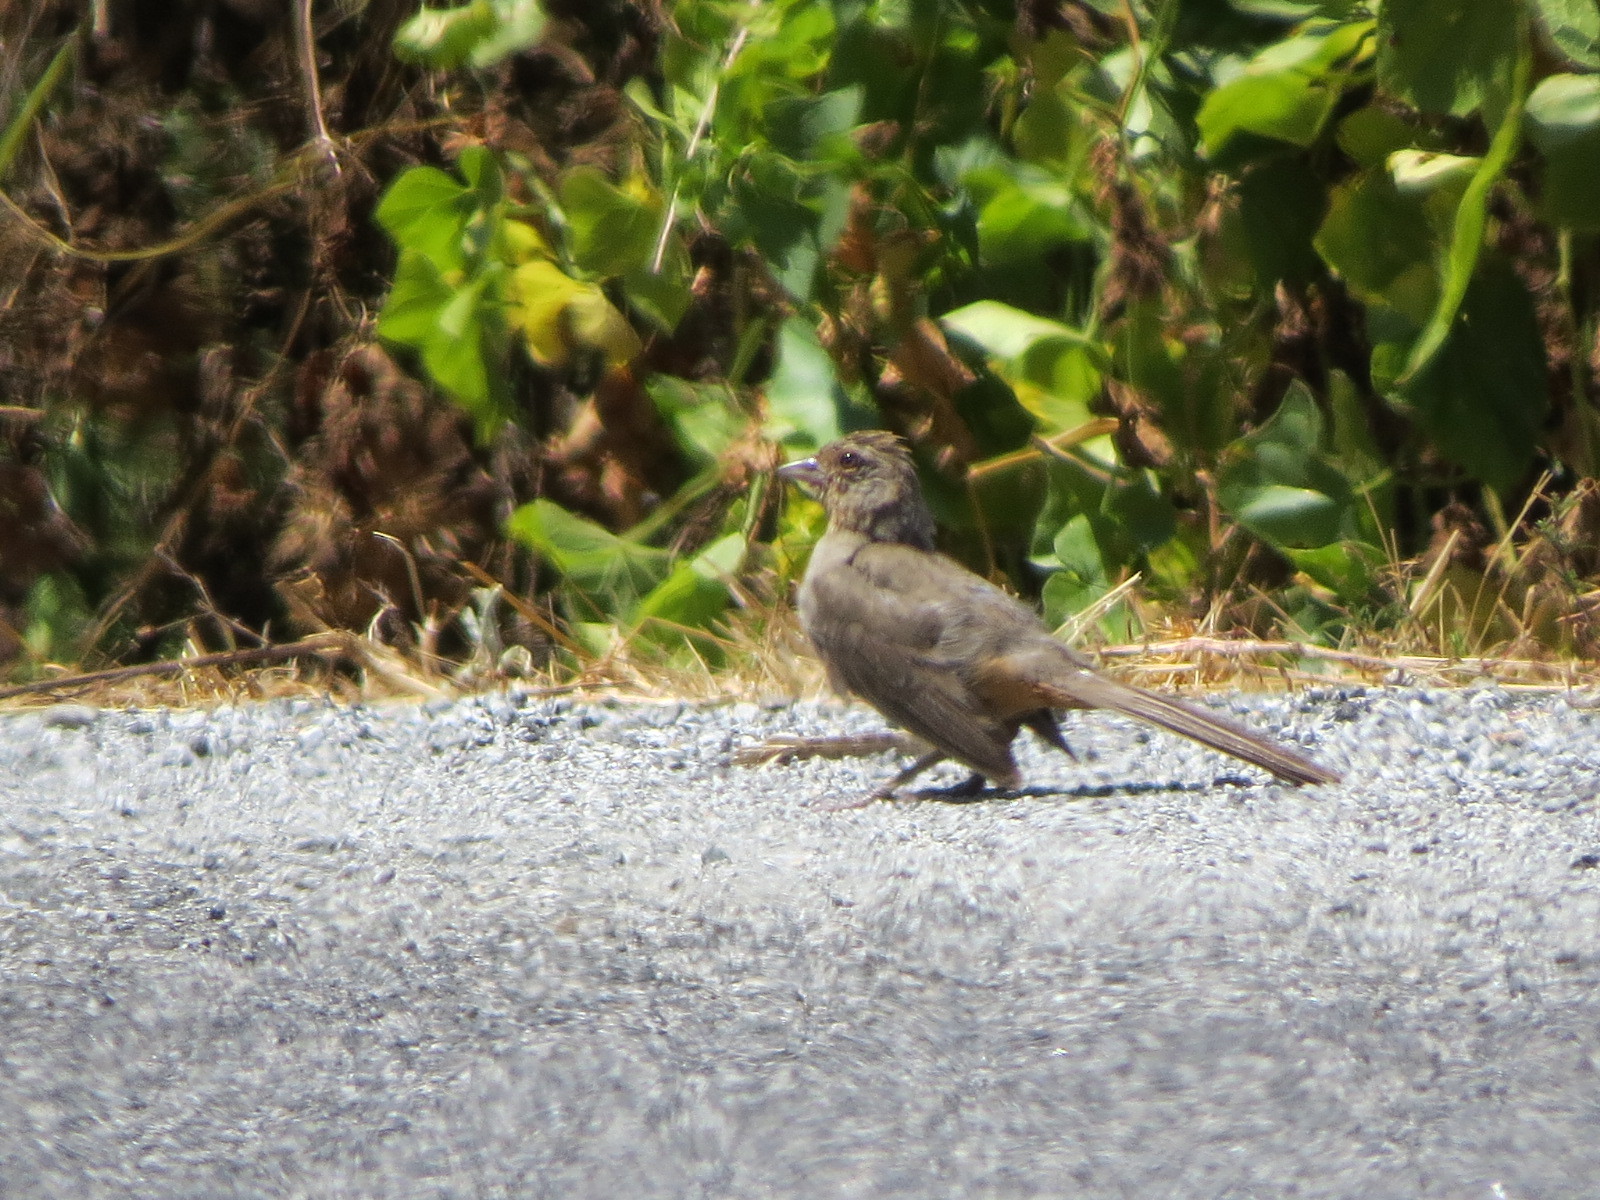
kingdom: Animalia
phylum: Chordata
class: Aves
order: Passeriformes
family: Passerellidae
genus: Melozone
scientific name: Melozone crissalis
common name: California towhee
